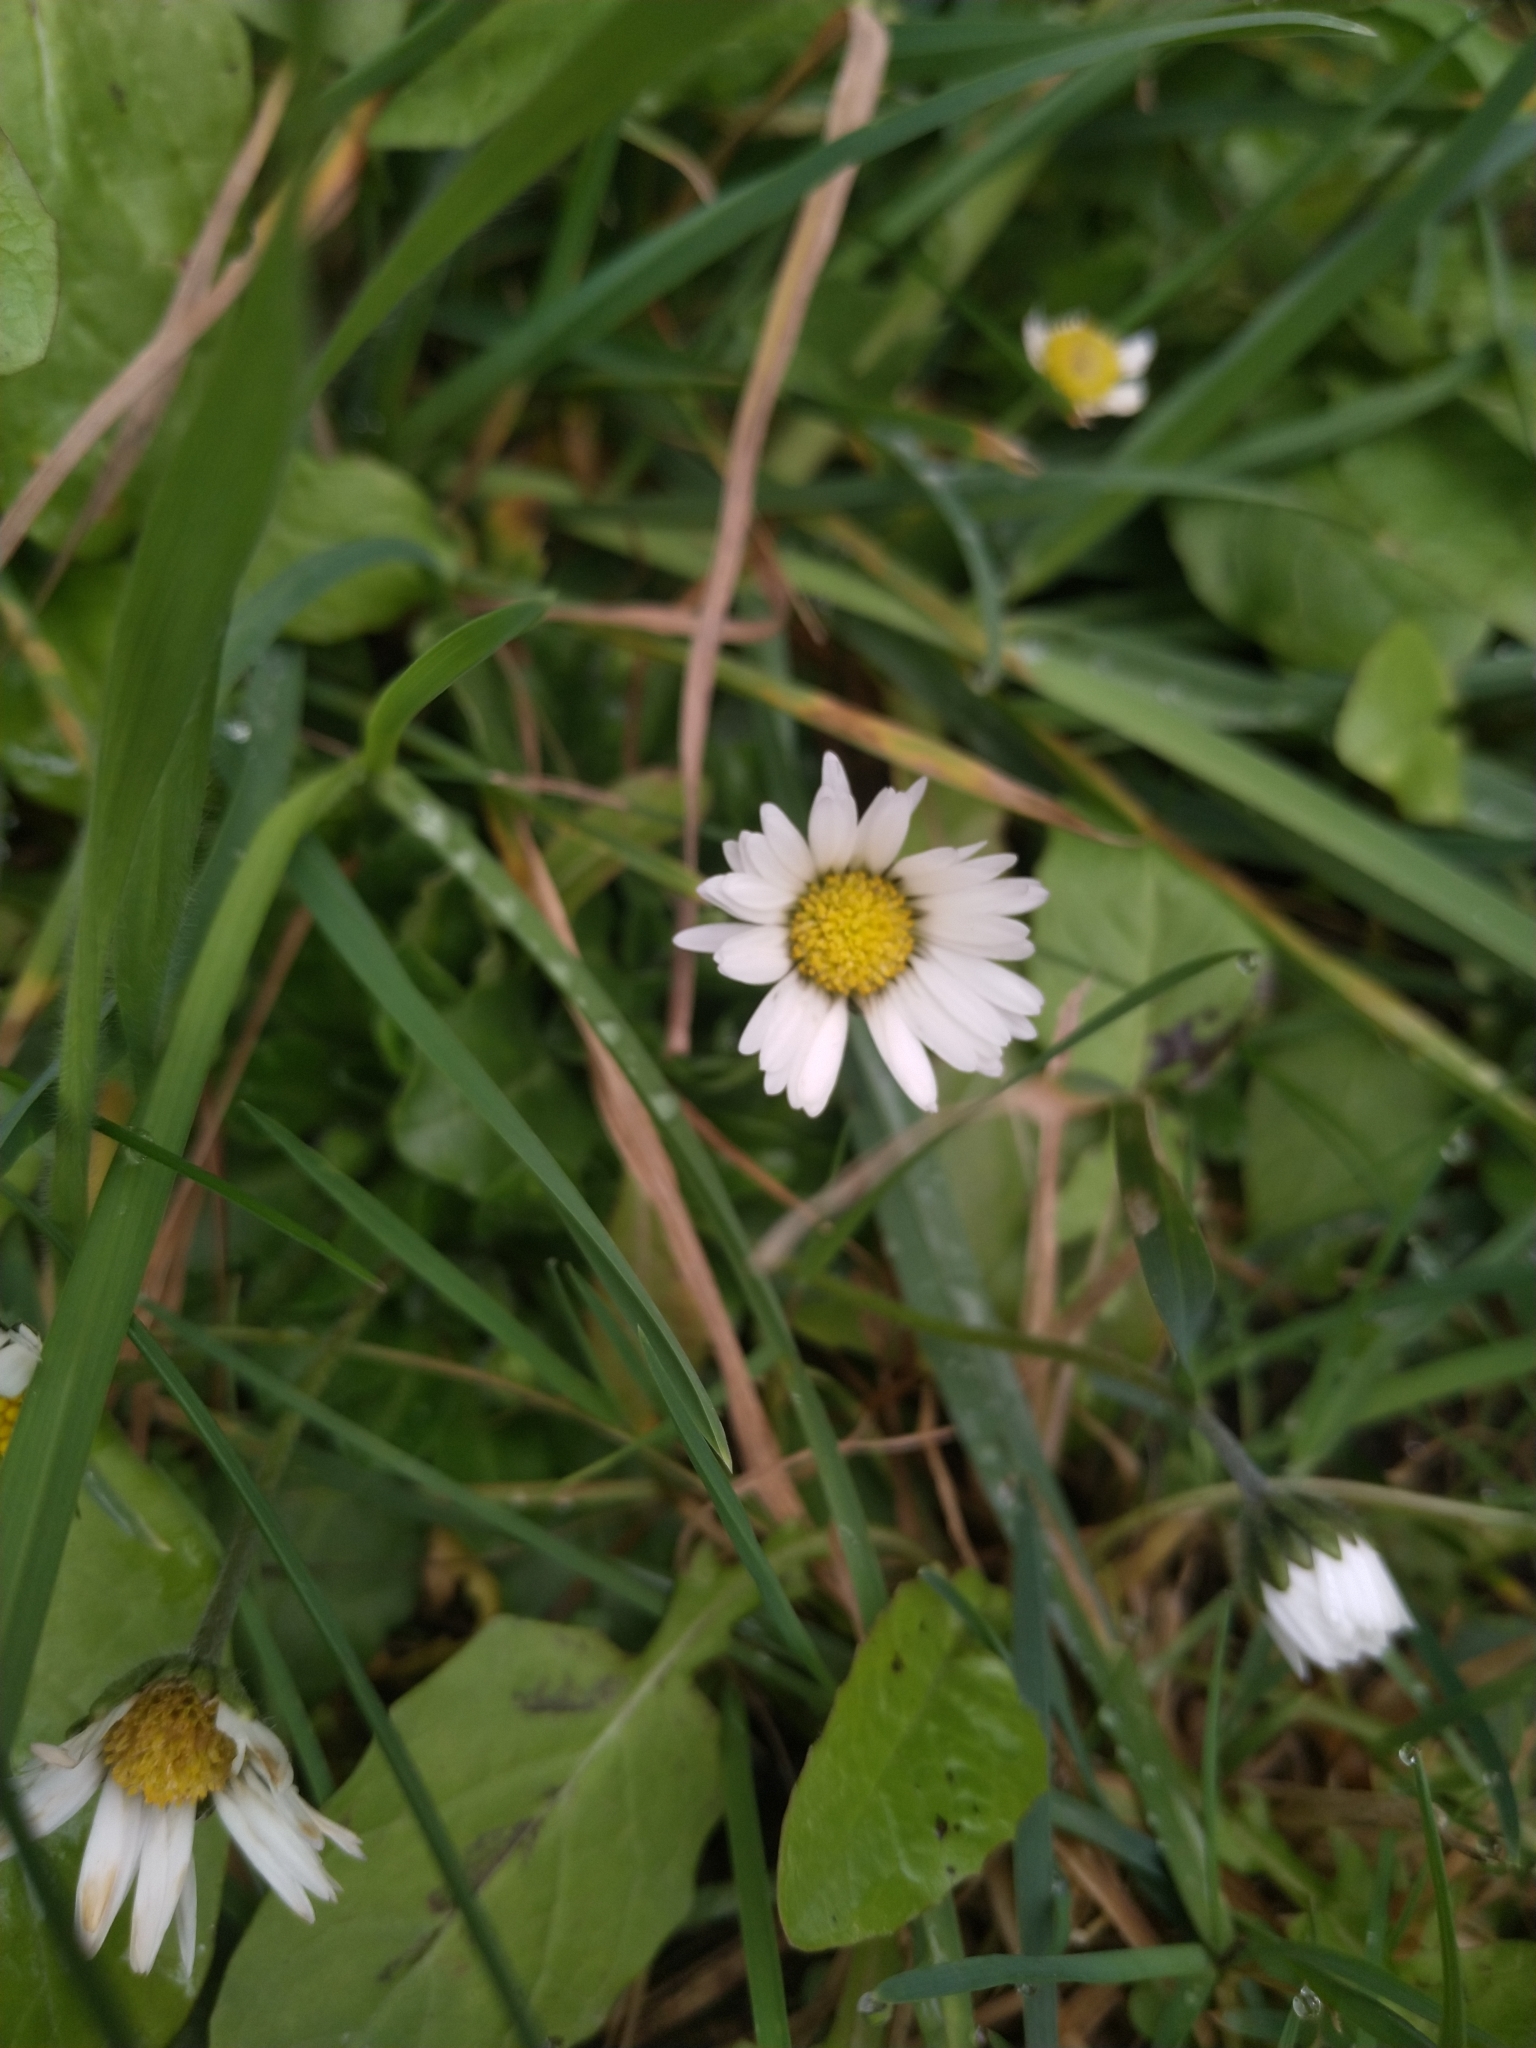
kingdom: Plantae
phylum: Tracheophyta
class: Magnoliopsida
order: Asterales
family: Asteraceae
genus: Bellis
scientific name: Bellis perennis
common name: Lawndaisy
